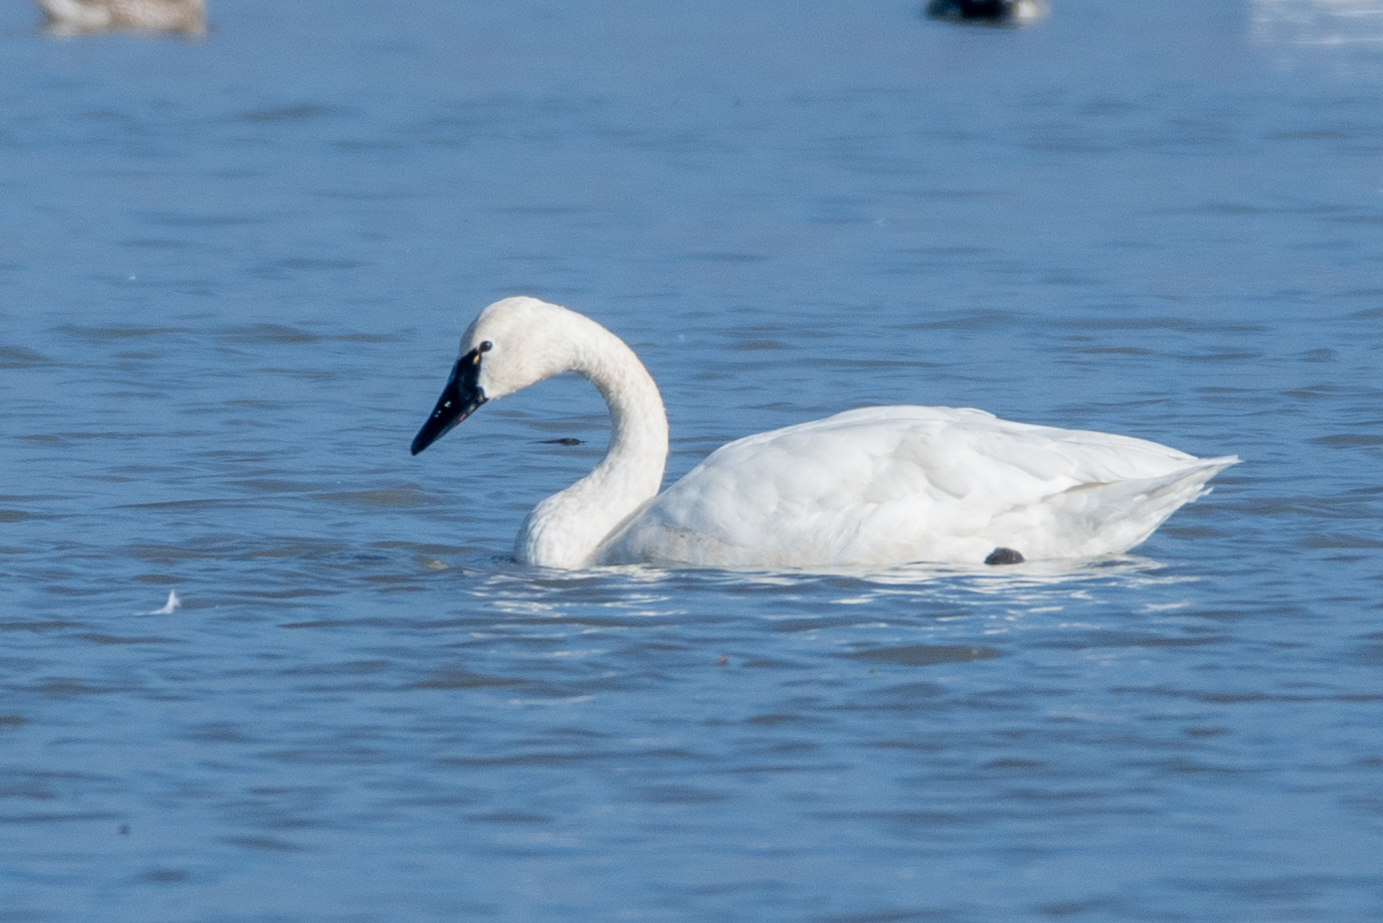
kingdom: Animalia
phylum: Chordata
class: Aves
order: Anseriformes
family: Anatidae
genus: Cygnus
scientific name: Cygnus columbianus
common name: Tundra swan
